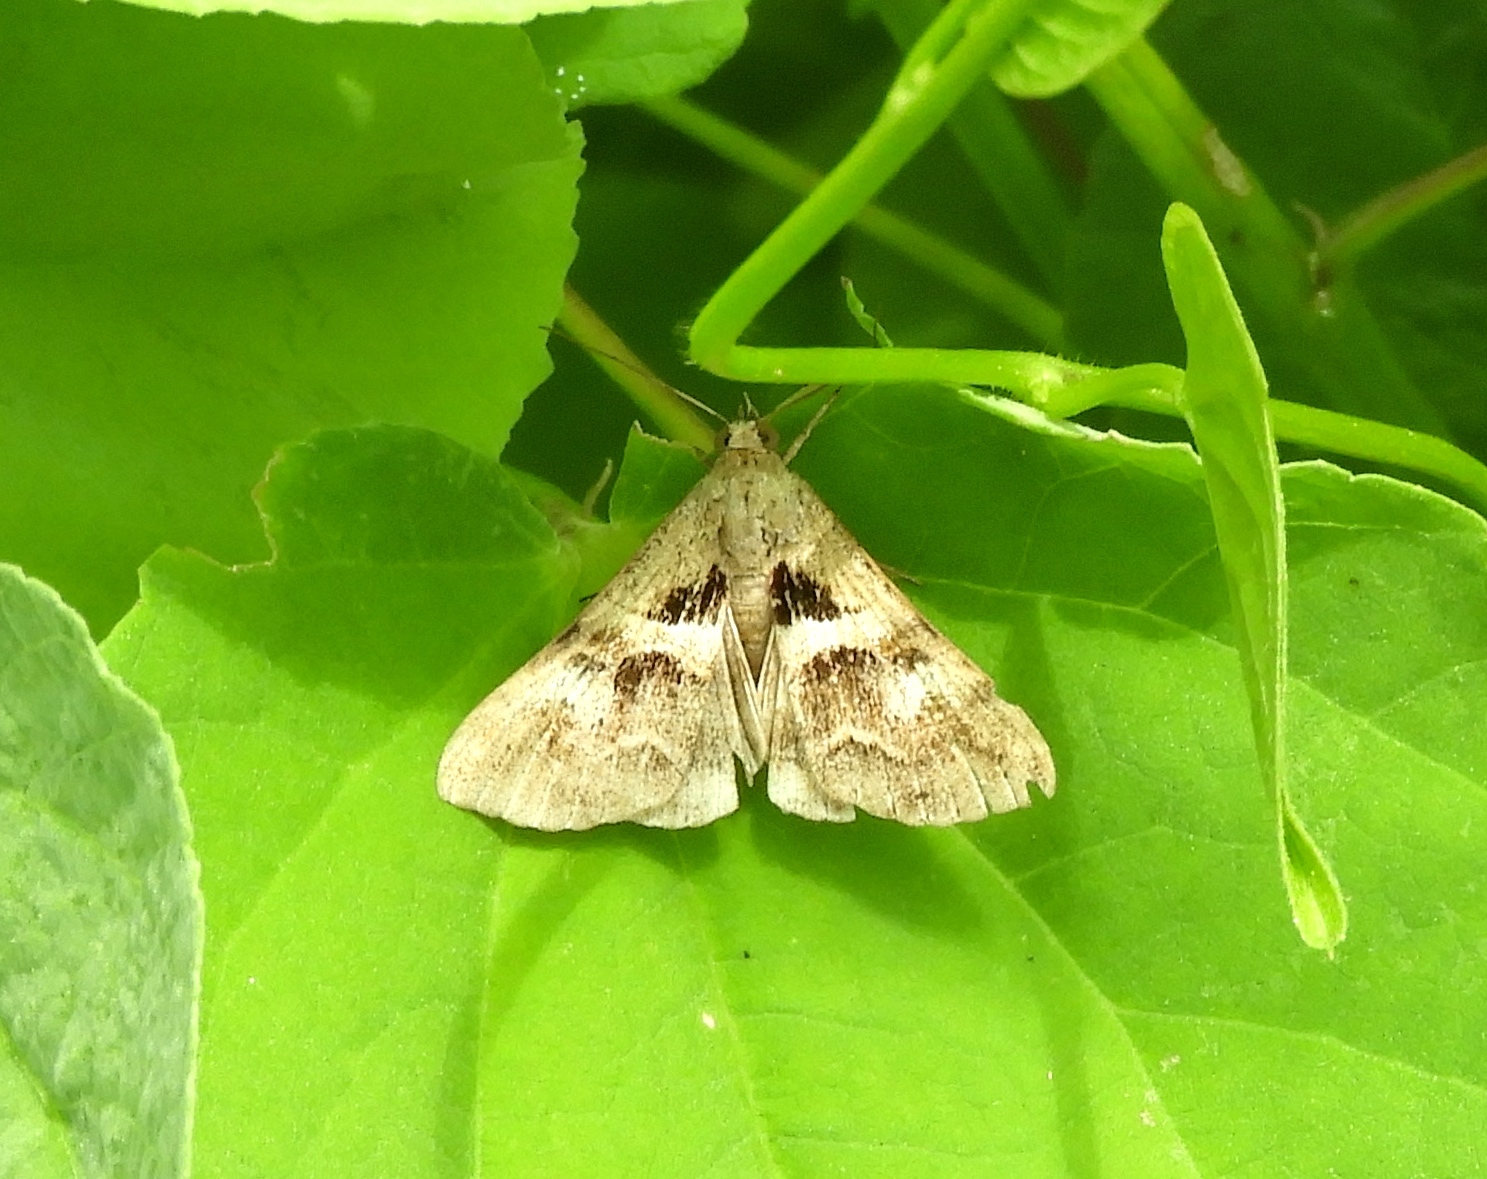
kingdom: Animalia
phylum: Arthropoda
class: Insecta
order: Lepidoptera
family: Erebidae
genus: Melipotis
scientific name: Melipotis cellaris
